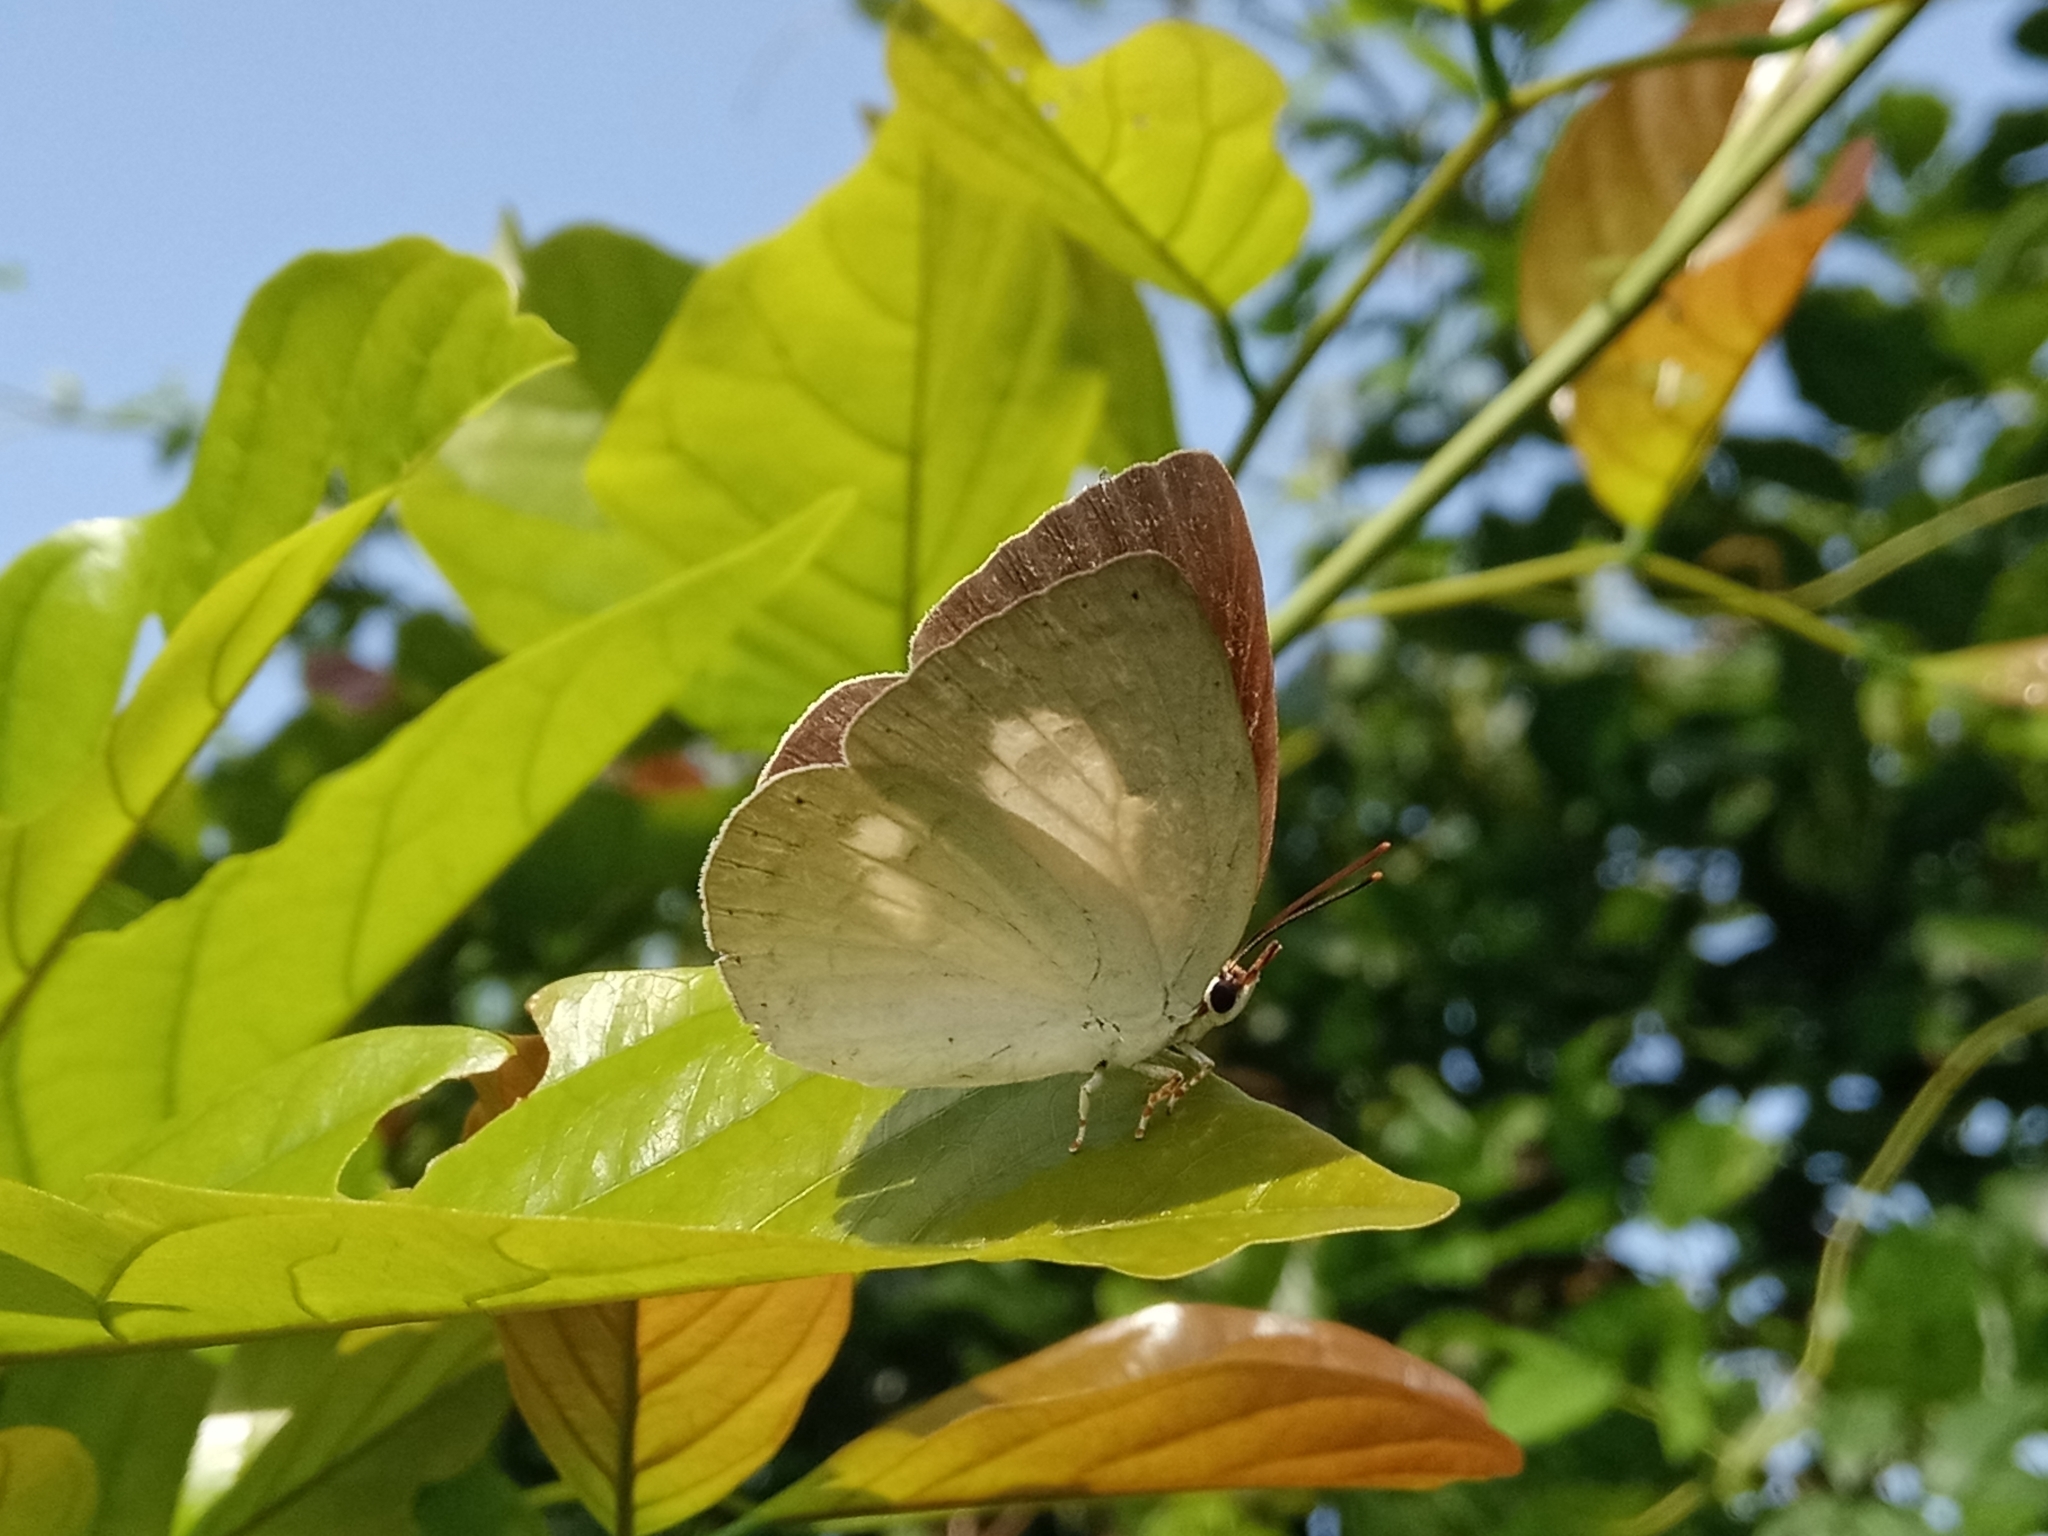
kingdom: Animalia
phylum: Arthropoda
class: Insecta
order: Lepidoptera
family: Lycaenidae
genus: Curetis
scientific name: Curetis thetis
